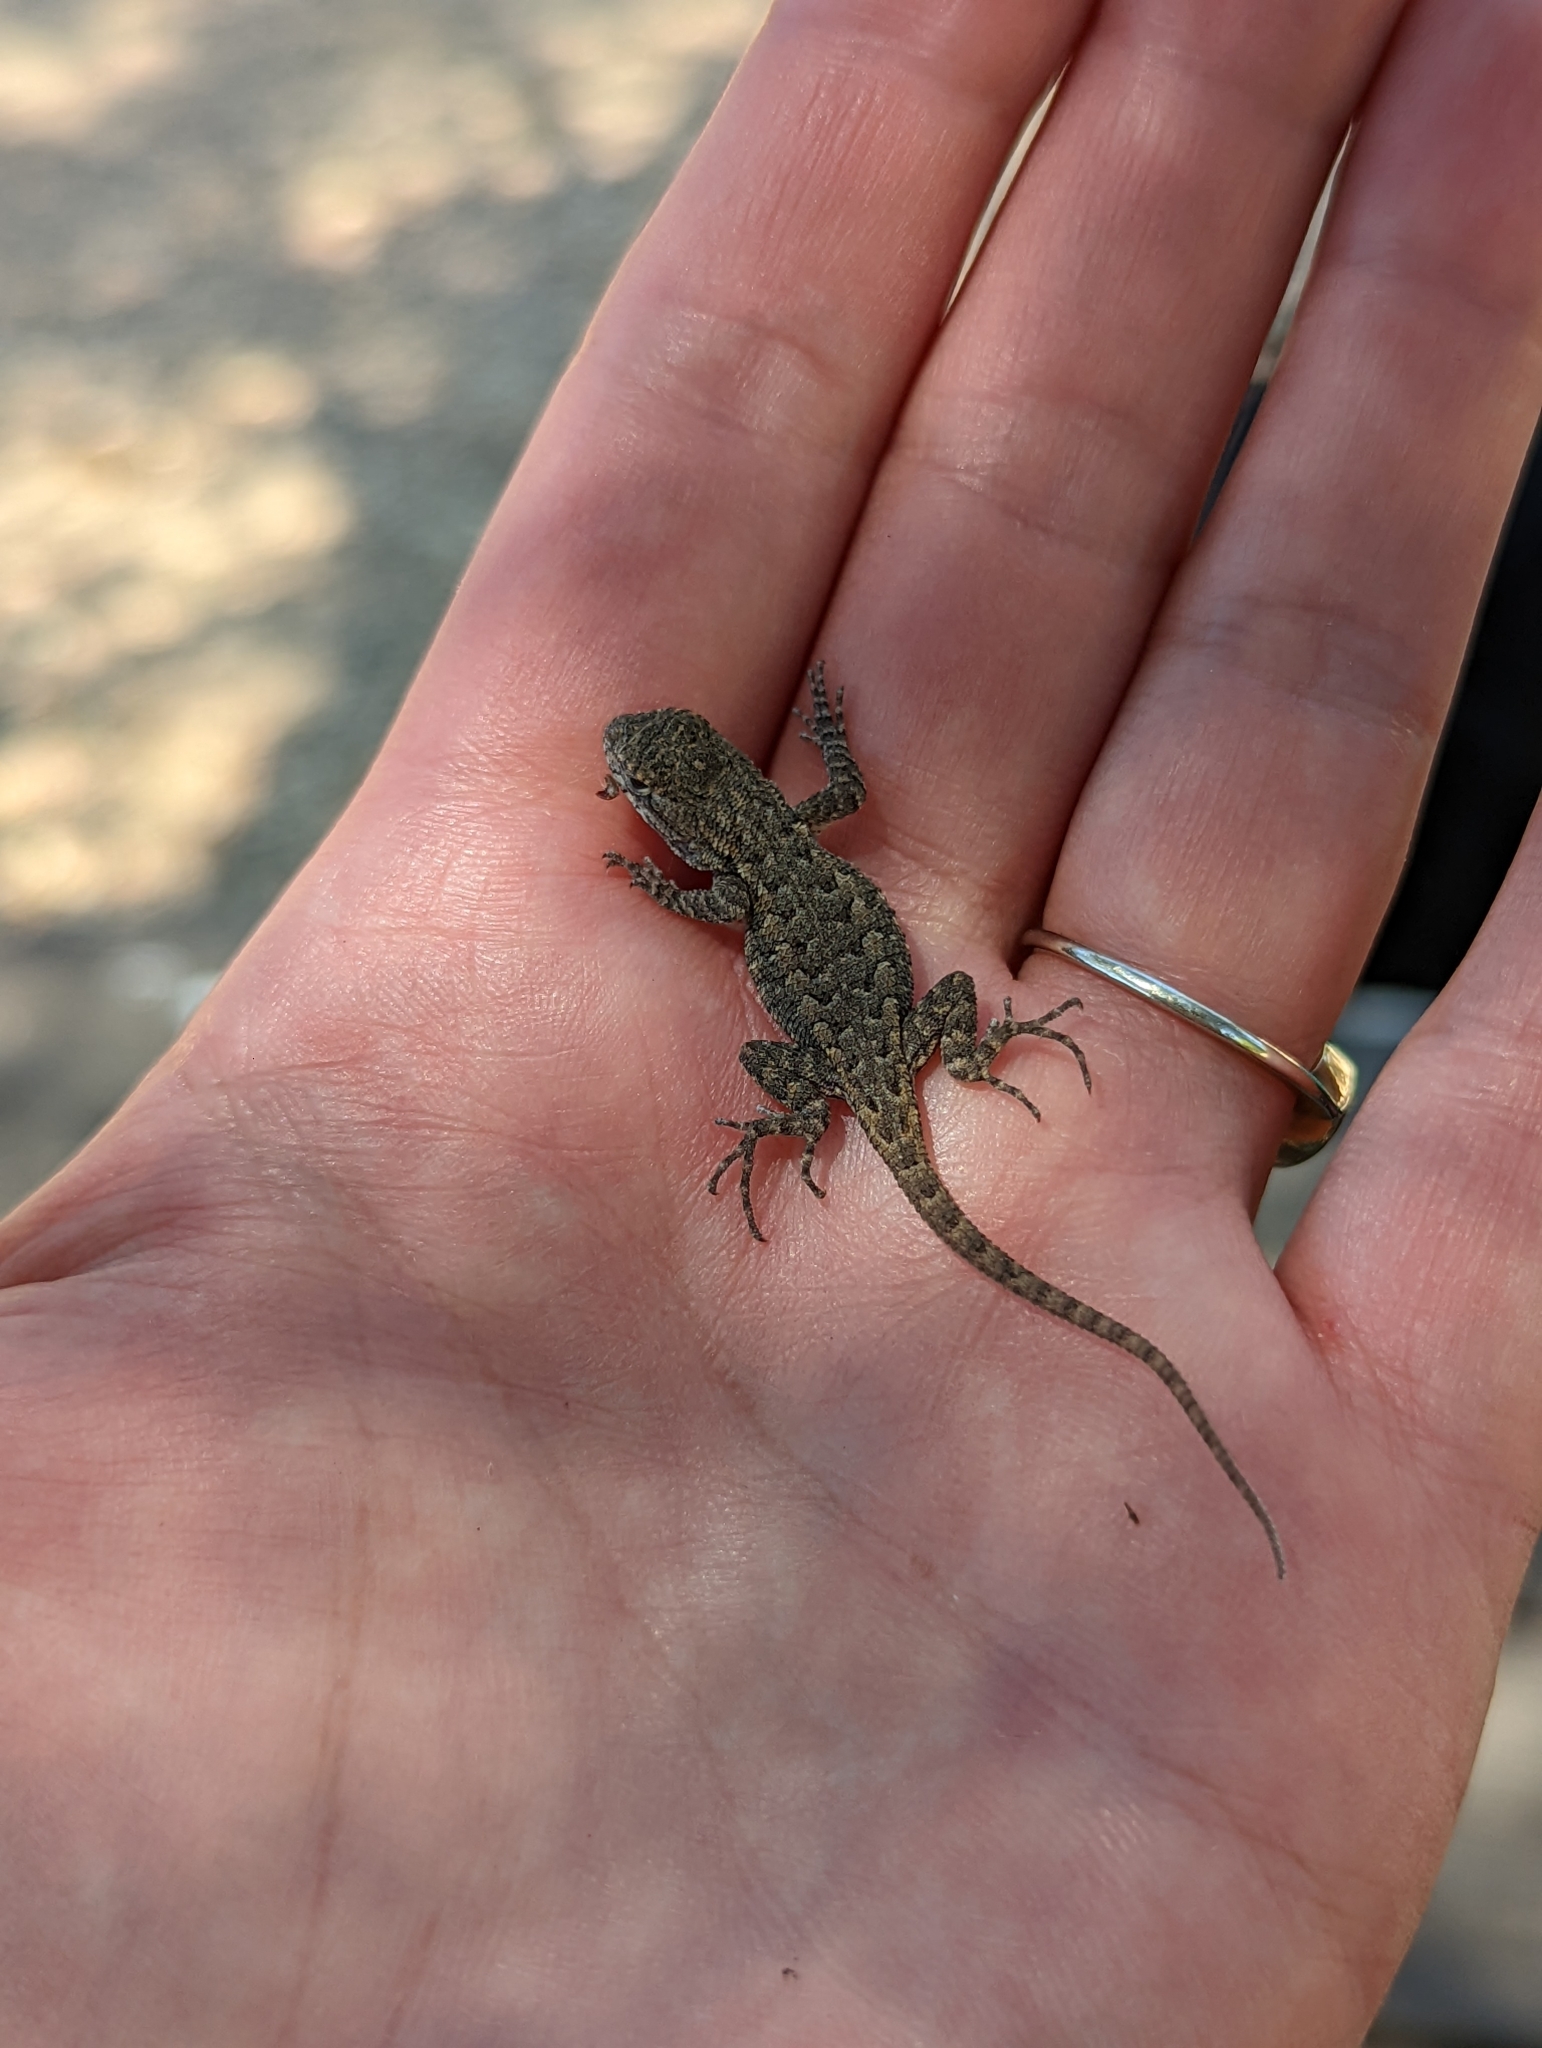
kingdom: Animalia
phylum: Chordata
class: Squamata
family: Phrynosomatidae
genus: Sceloporus
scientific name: Sceloporus occidentalis
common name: Western fence lizard
